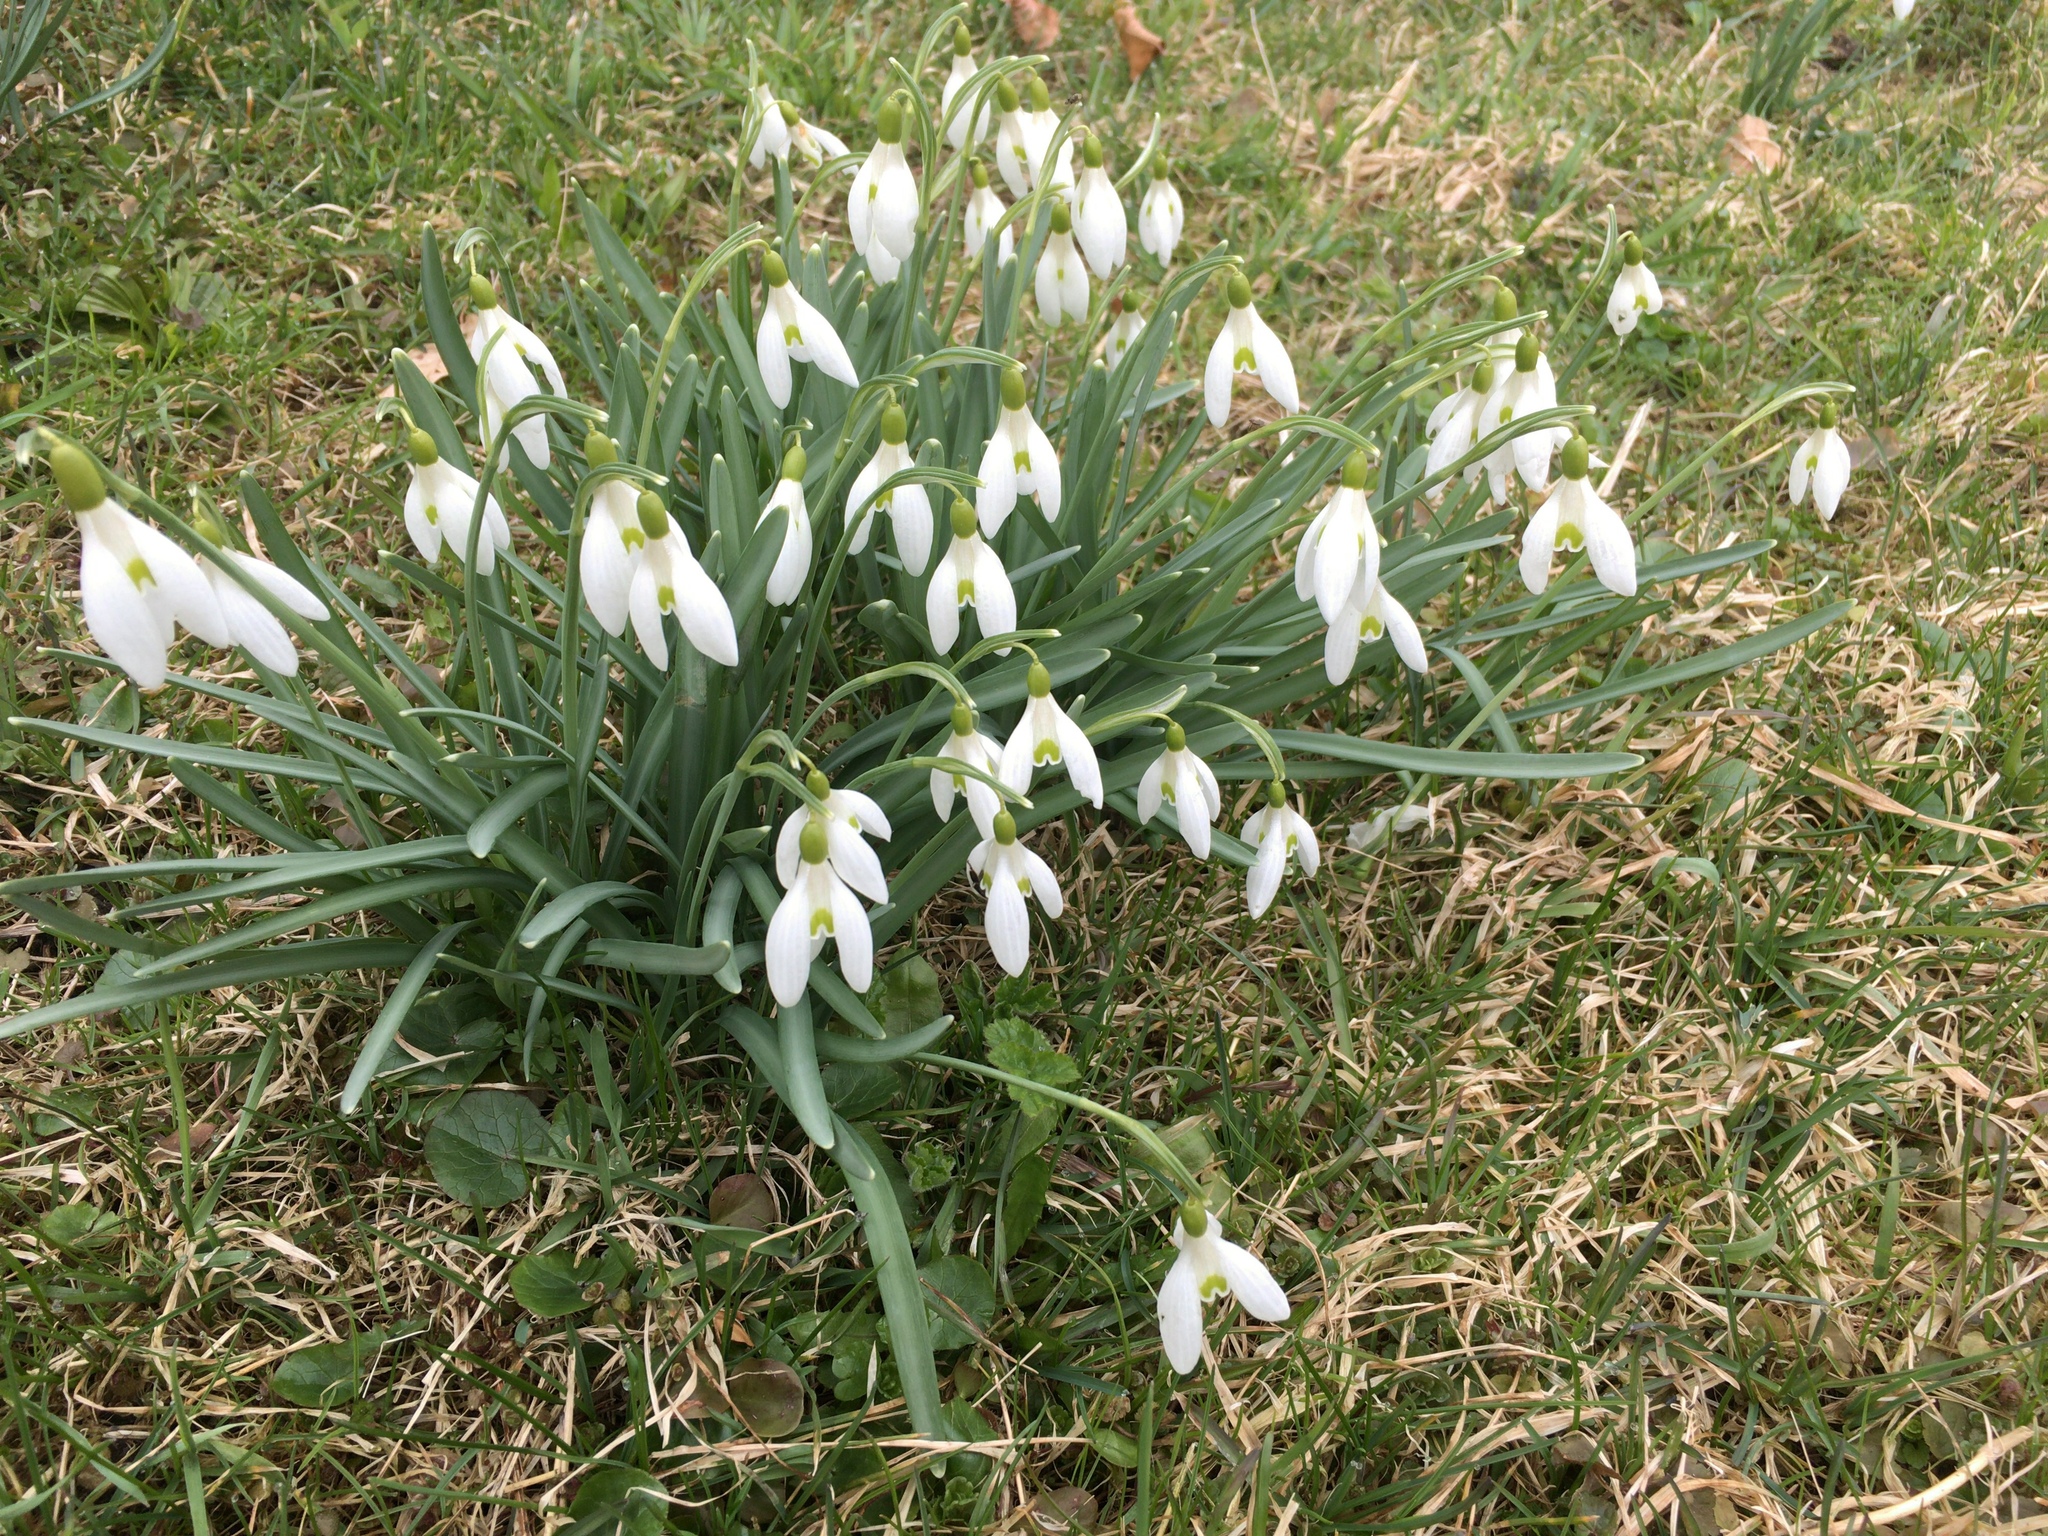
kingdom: Plantae
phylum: Tracheophyta
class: Liliopsida
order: Asparagales
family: Amaryllidaceae
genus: Galanthus
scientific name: Galanthus nivalis
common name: Snowdrop
